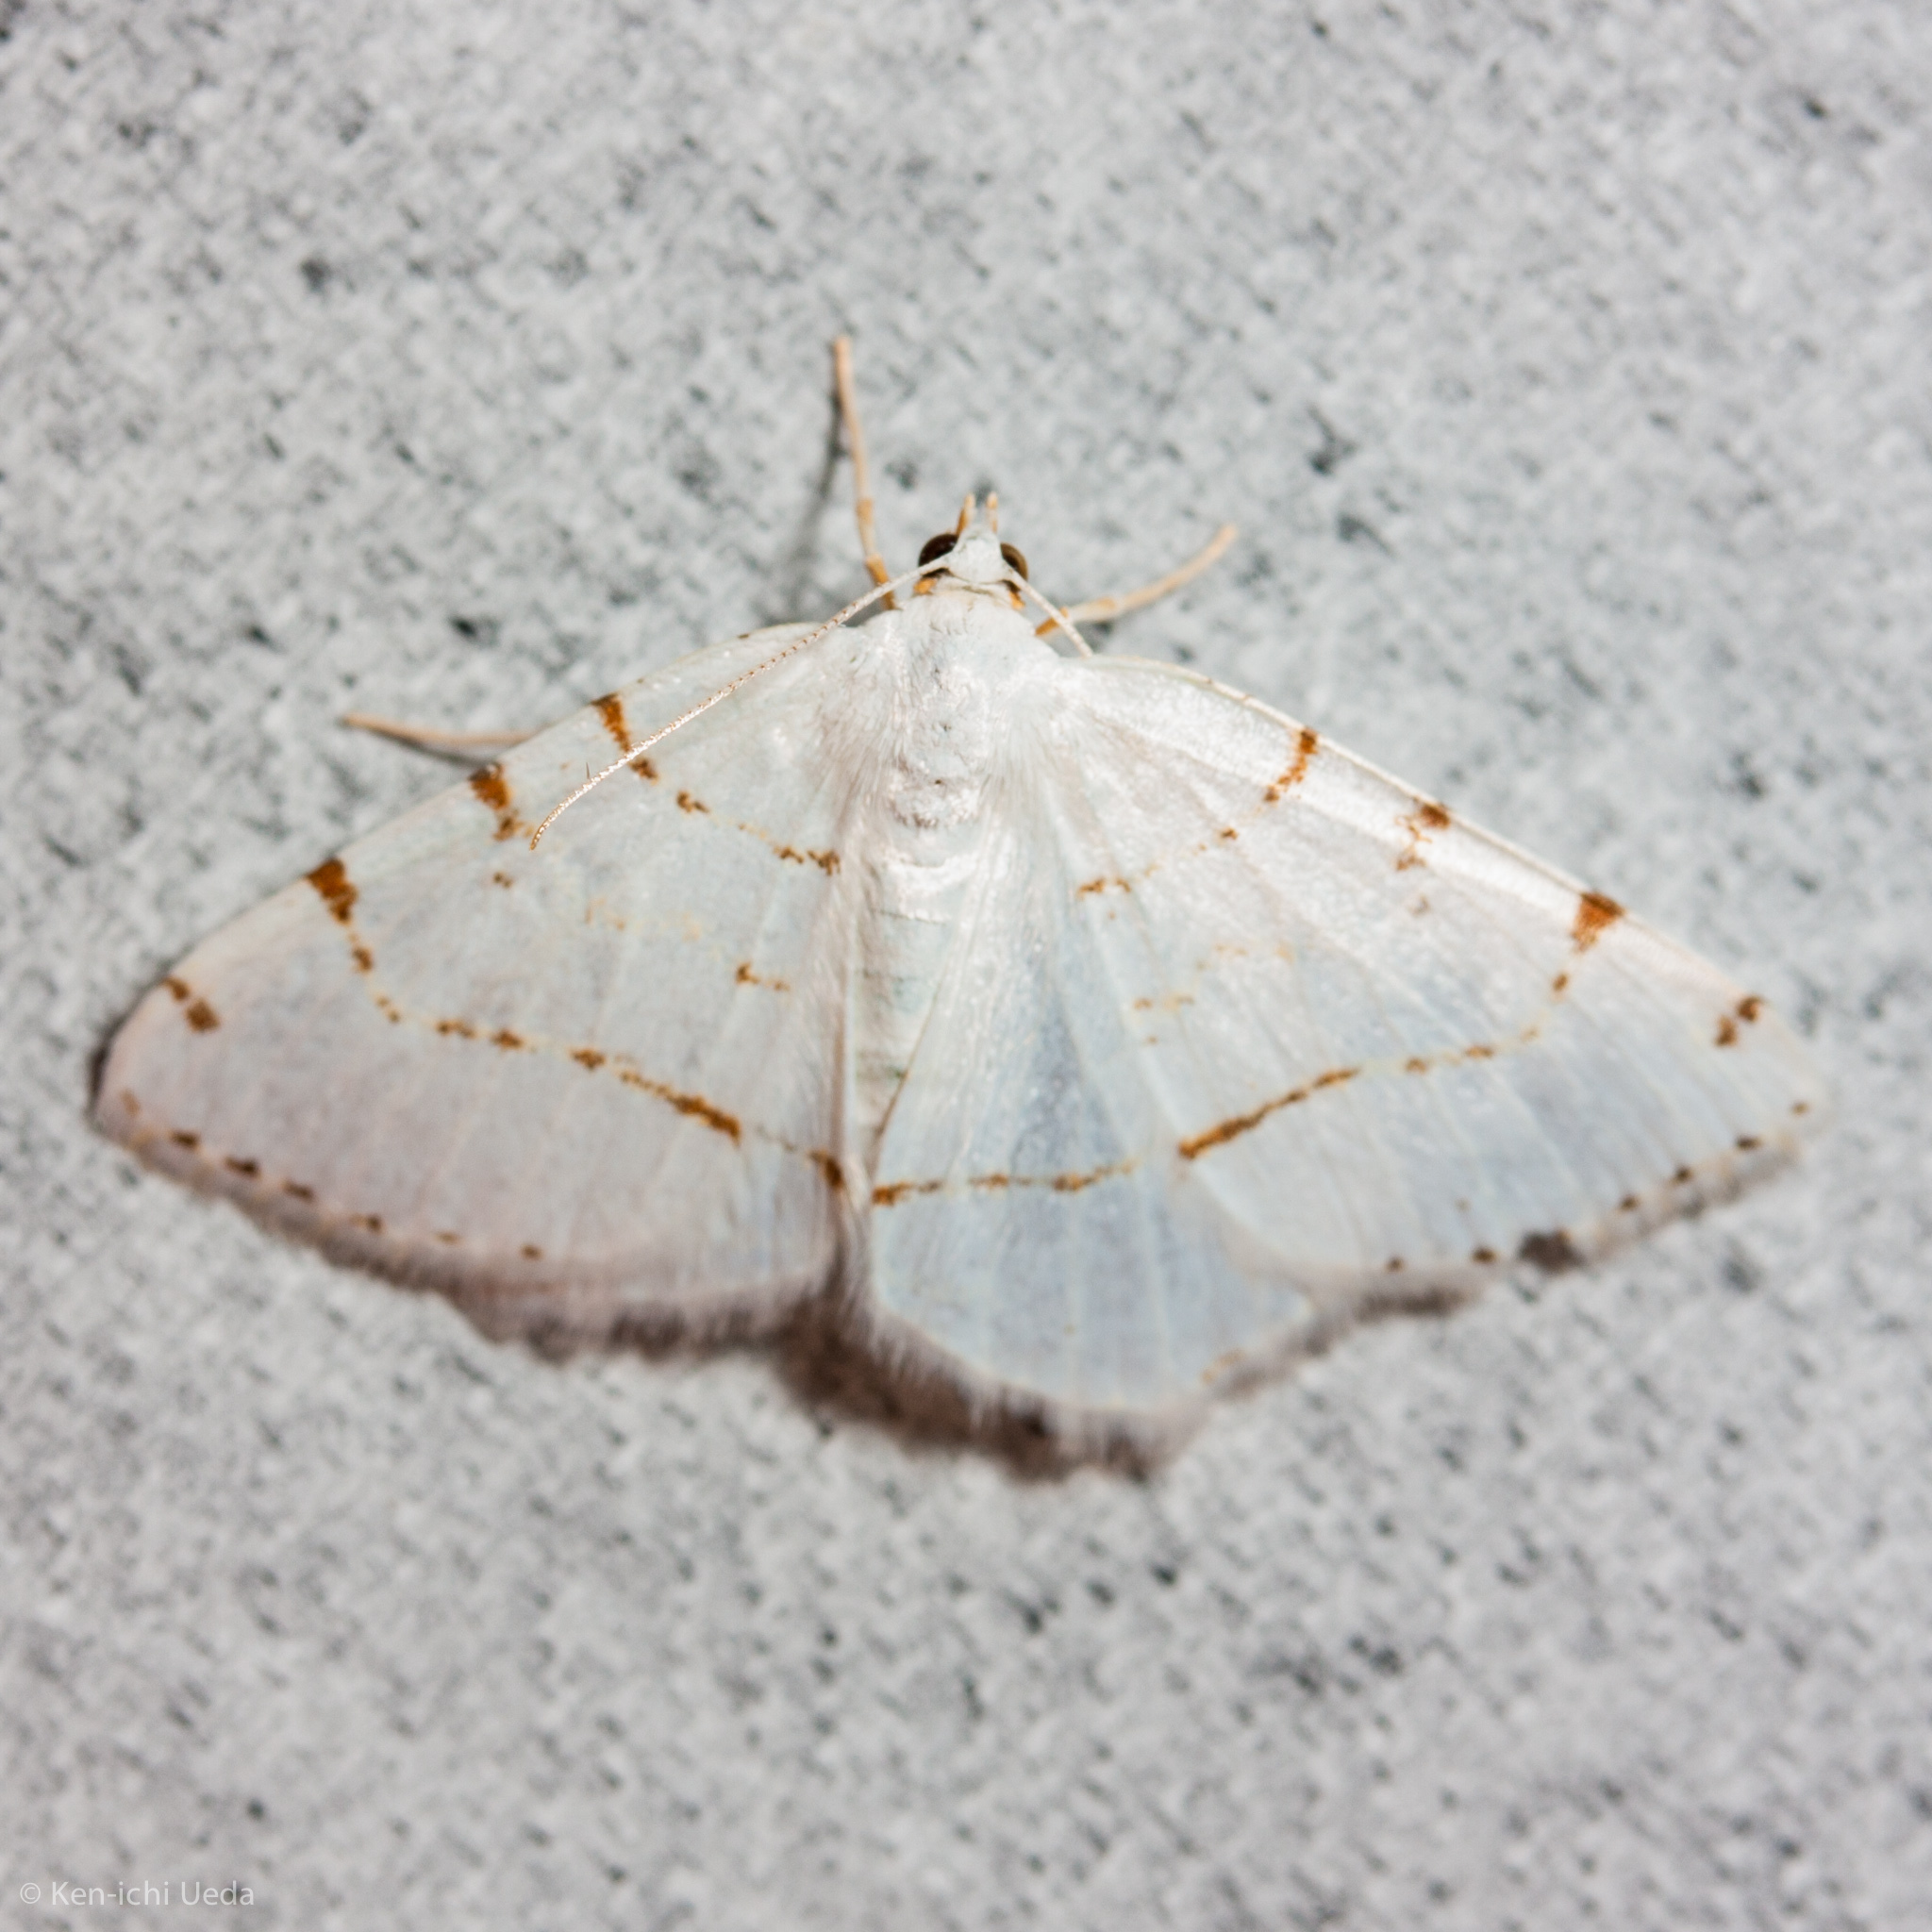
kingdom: Animalia
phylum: Arthropoda
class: Insecta
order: Lepidoptera
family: Geometridae
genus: Macaria
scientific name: Macaria pustularia
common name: Lesser maple spanworm moth
